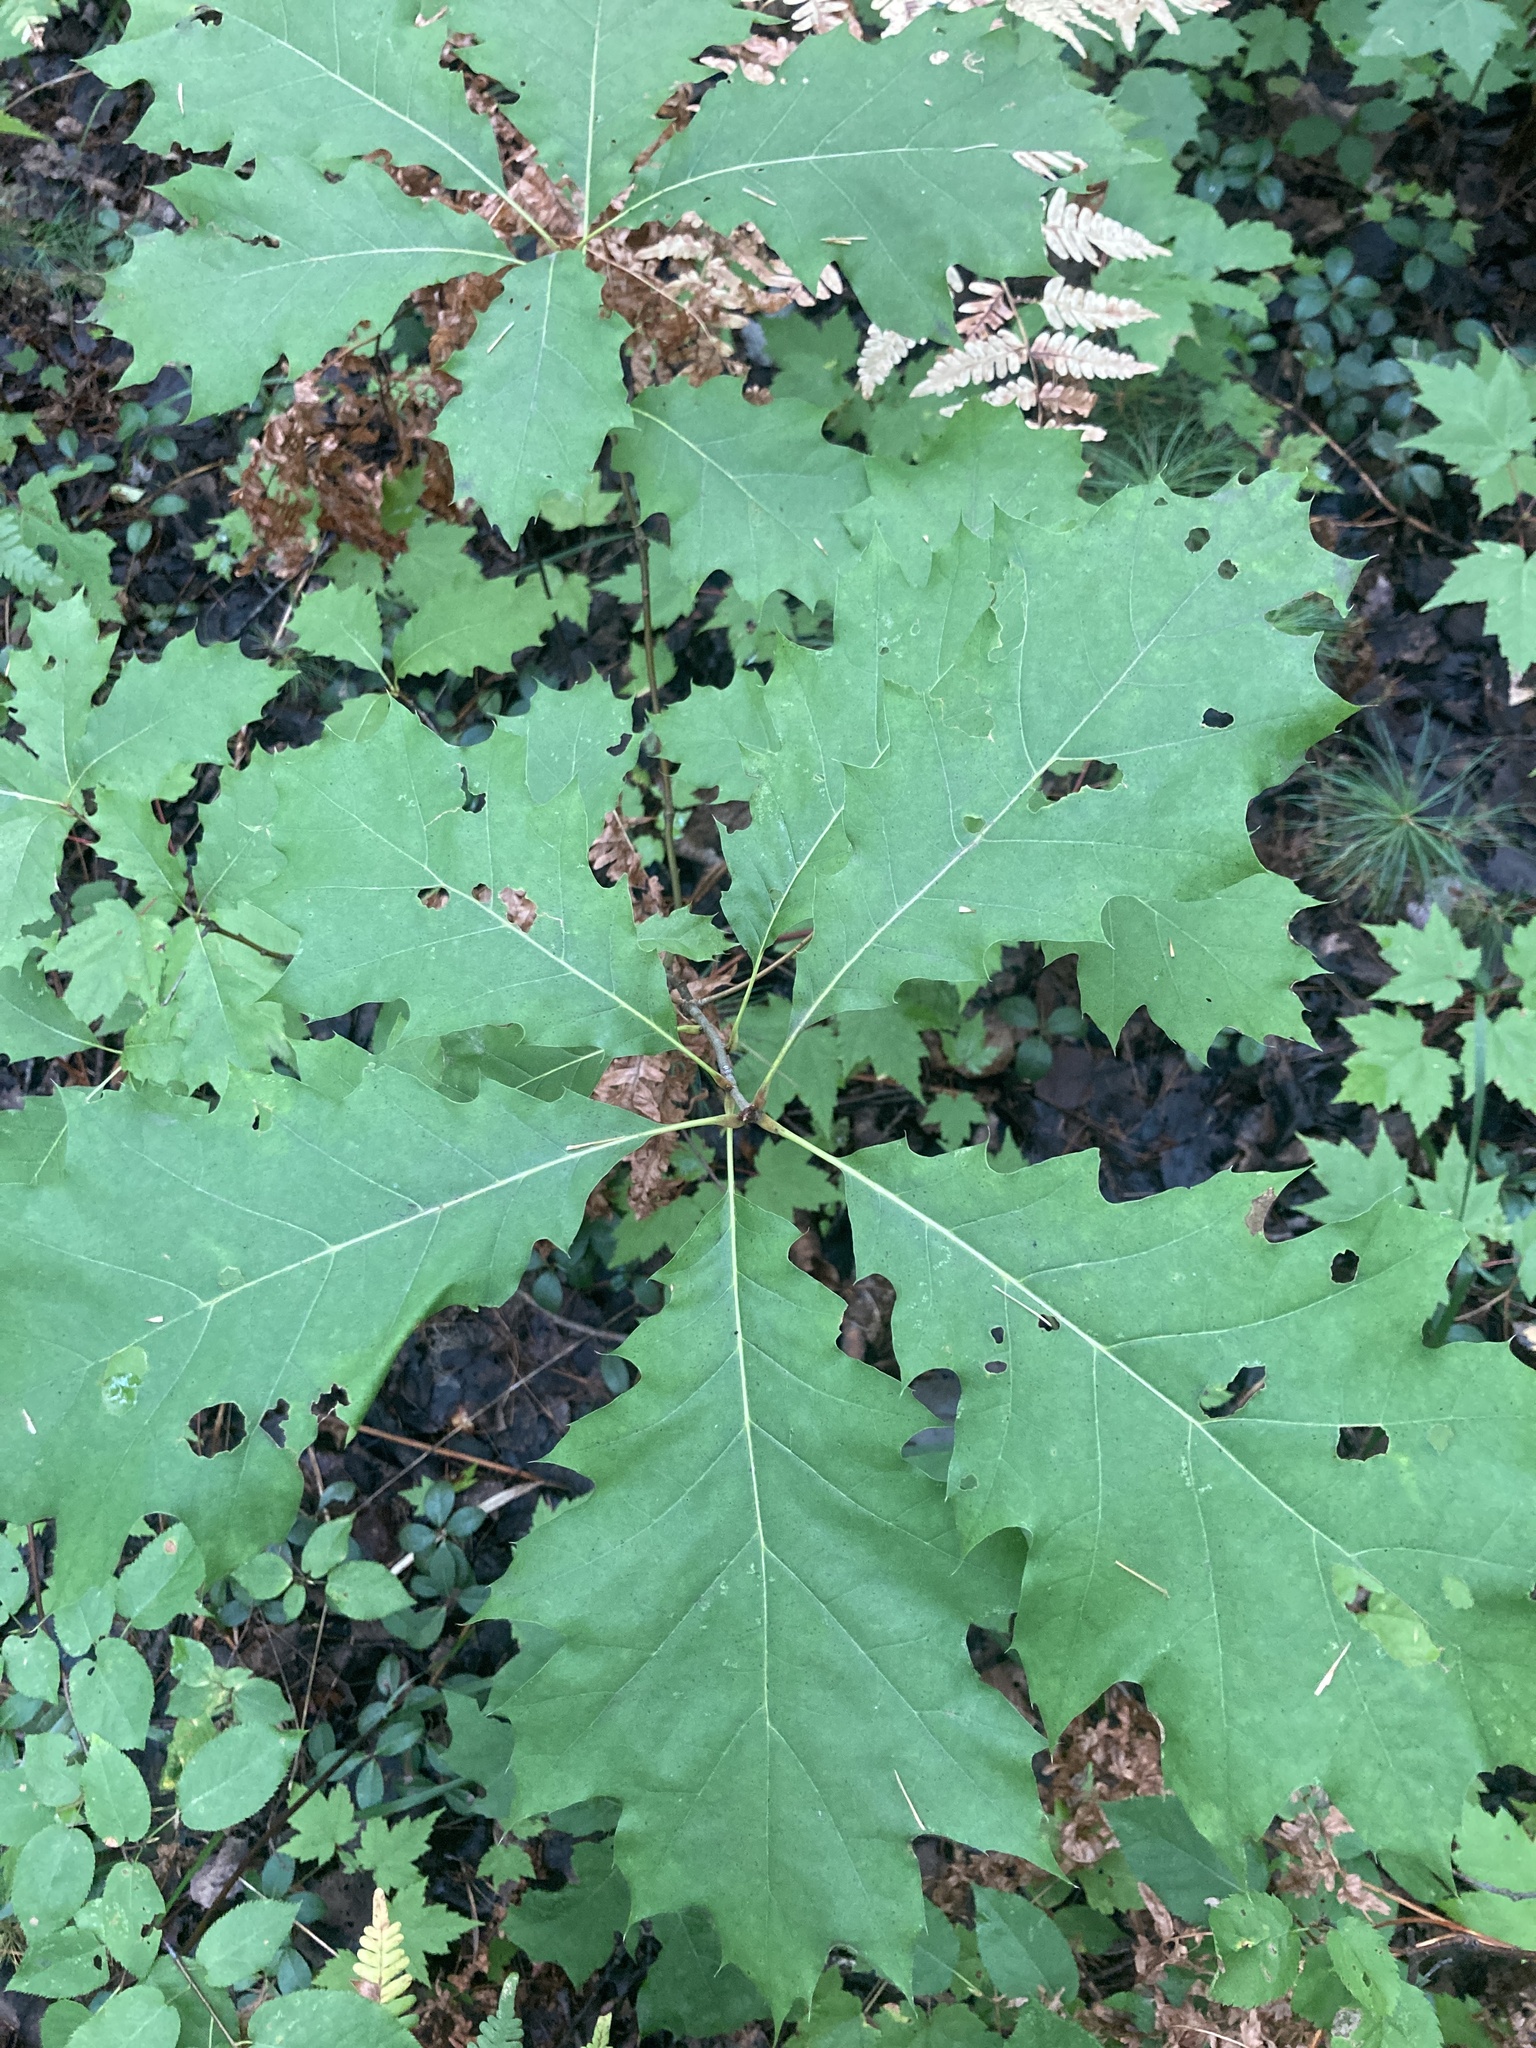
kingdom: Plantae
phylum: Tracheophyta
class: Magnoliopsida
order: Fagales
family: Fagaceae
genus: Quercus
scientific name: Quercus rubra
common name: Red oak
